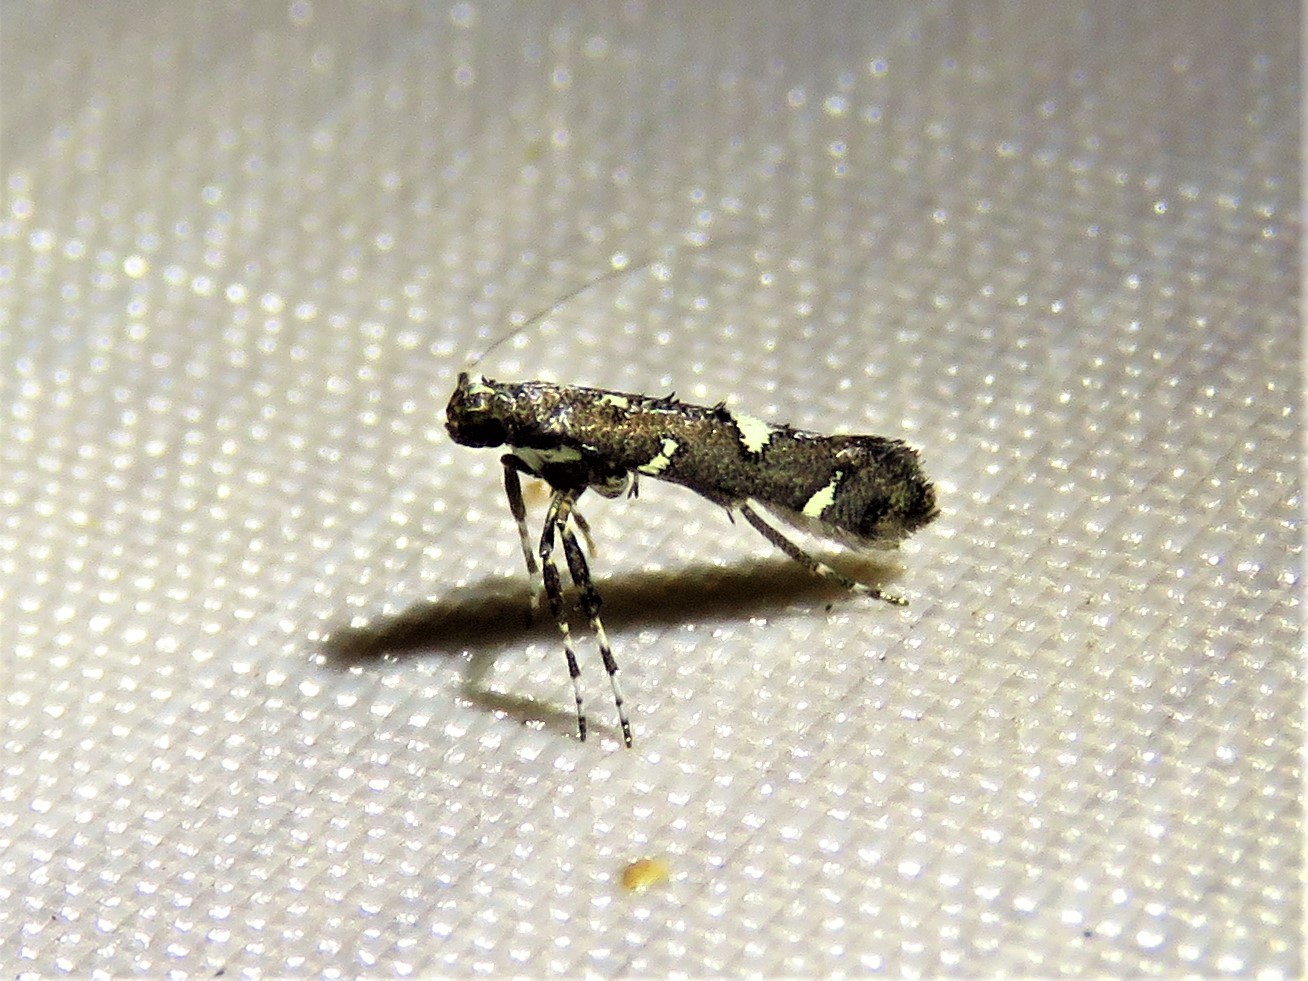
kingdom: Animalia
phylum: Arthropoda
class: Insecta
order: Lepidoptera
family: Gracillariidae
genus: Caloptilia
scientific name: Caloptilia triadicae
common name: Tallow leaf roller
